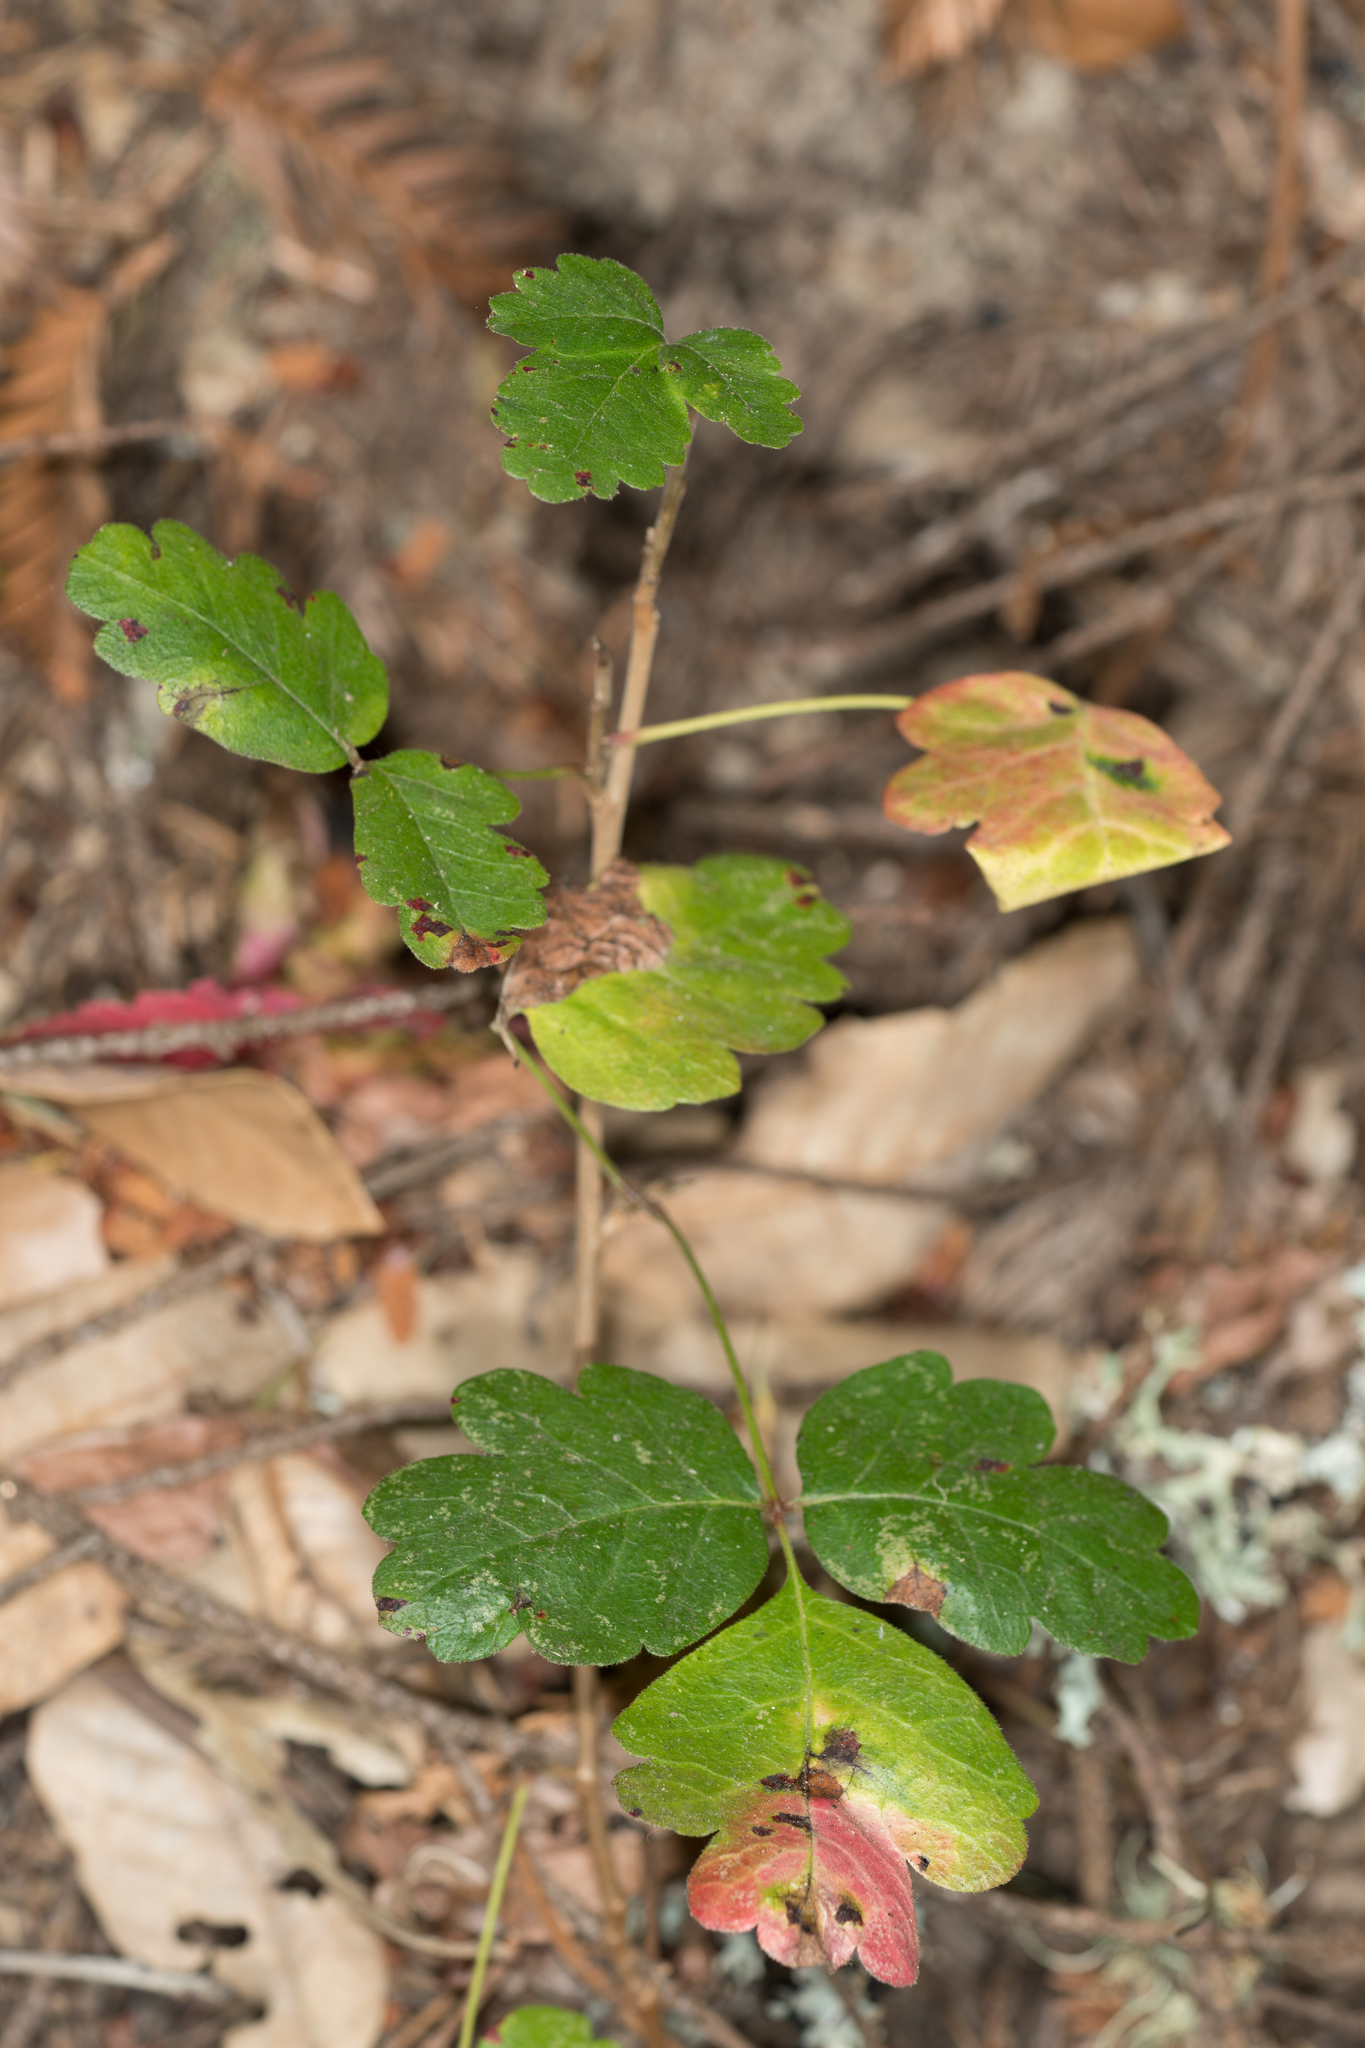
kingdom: Plantae
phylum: Tracheophyta
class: Magnoliopsida
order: Sapindales
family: Anacardiaceae
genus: Toxicodendron
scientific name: Toxicodendron diversilobum
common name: Pacific poison-oak
